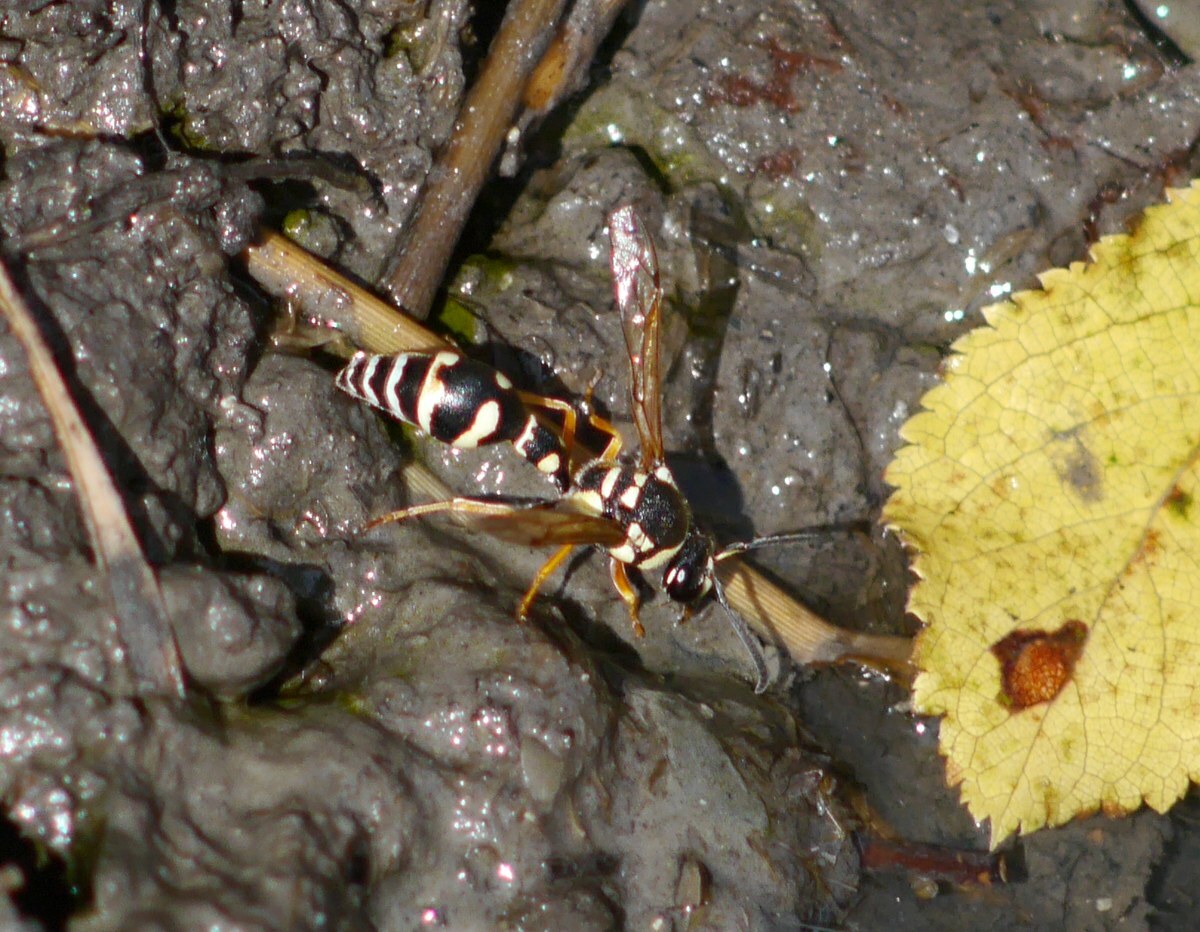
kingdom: Animalia
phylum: Arthropoda
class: Insecta
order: Hymenoptera
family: Vespidae
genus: Eumenes
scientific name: Eumenes sareptanus
